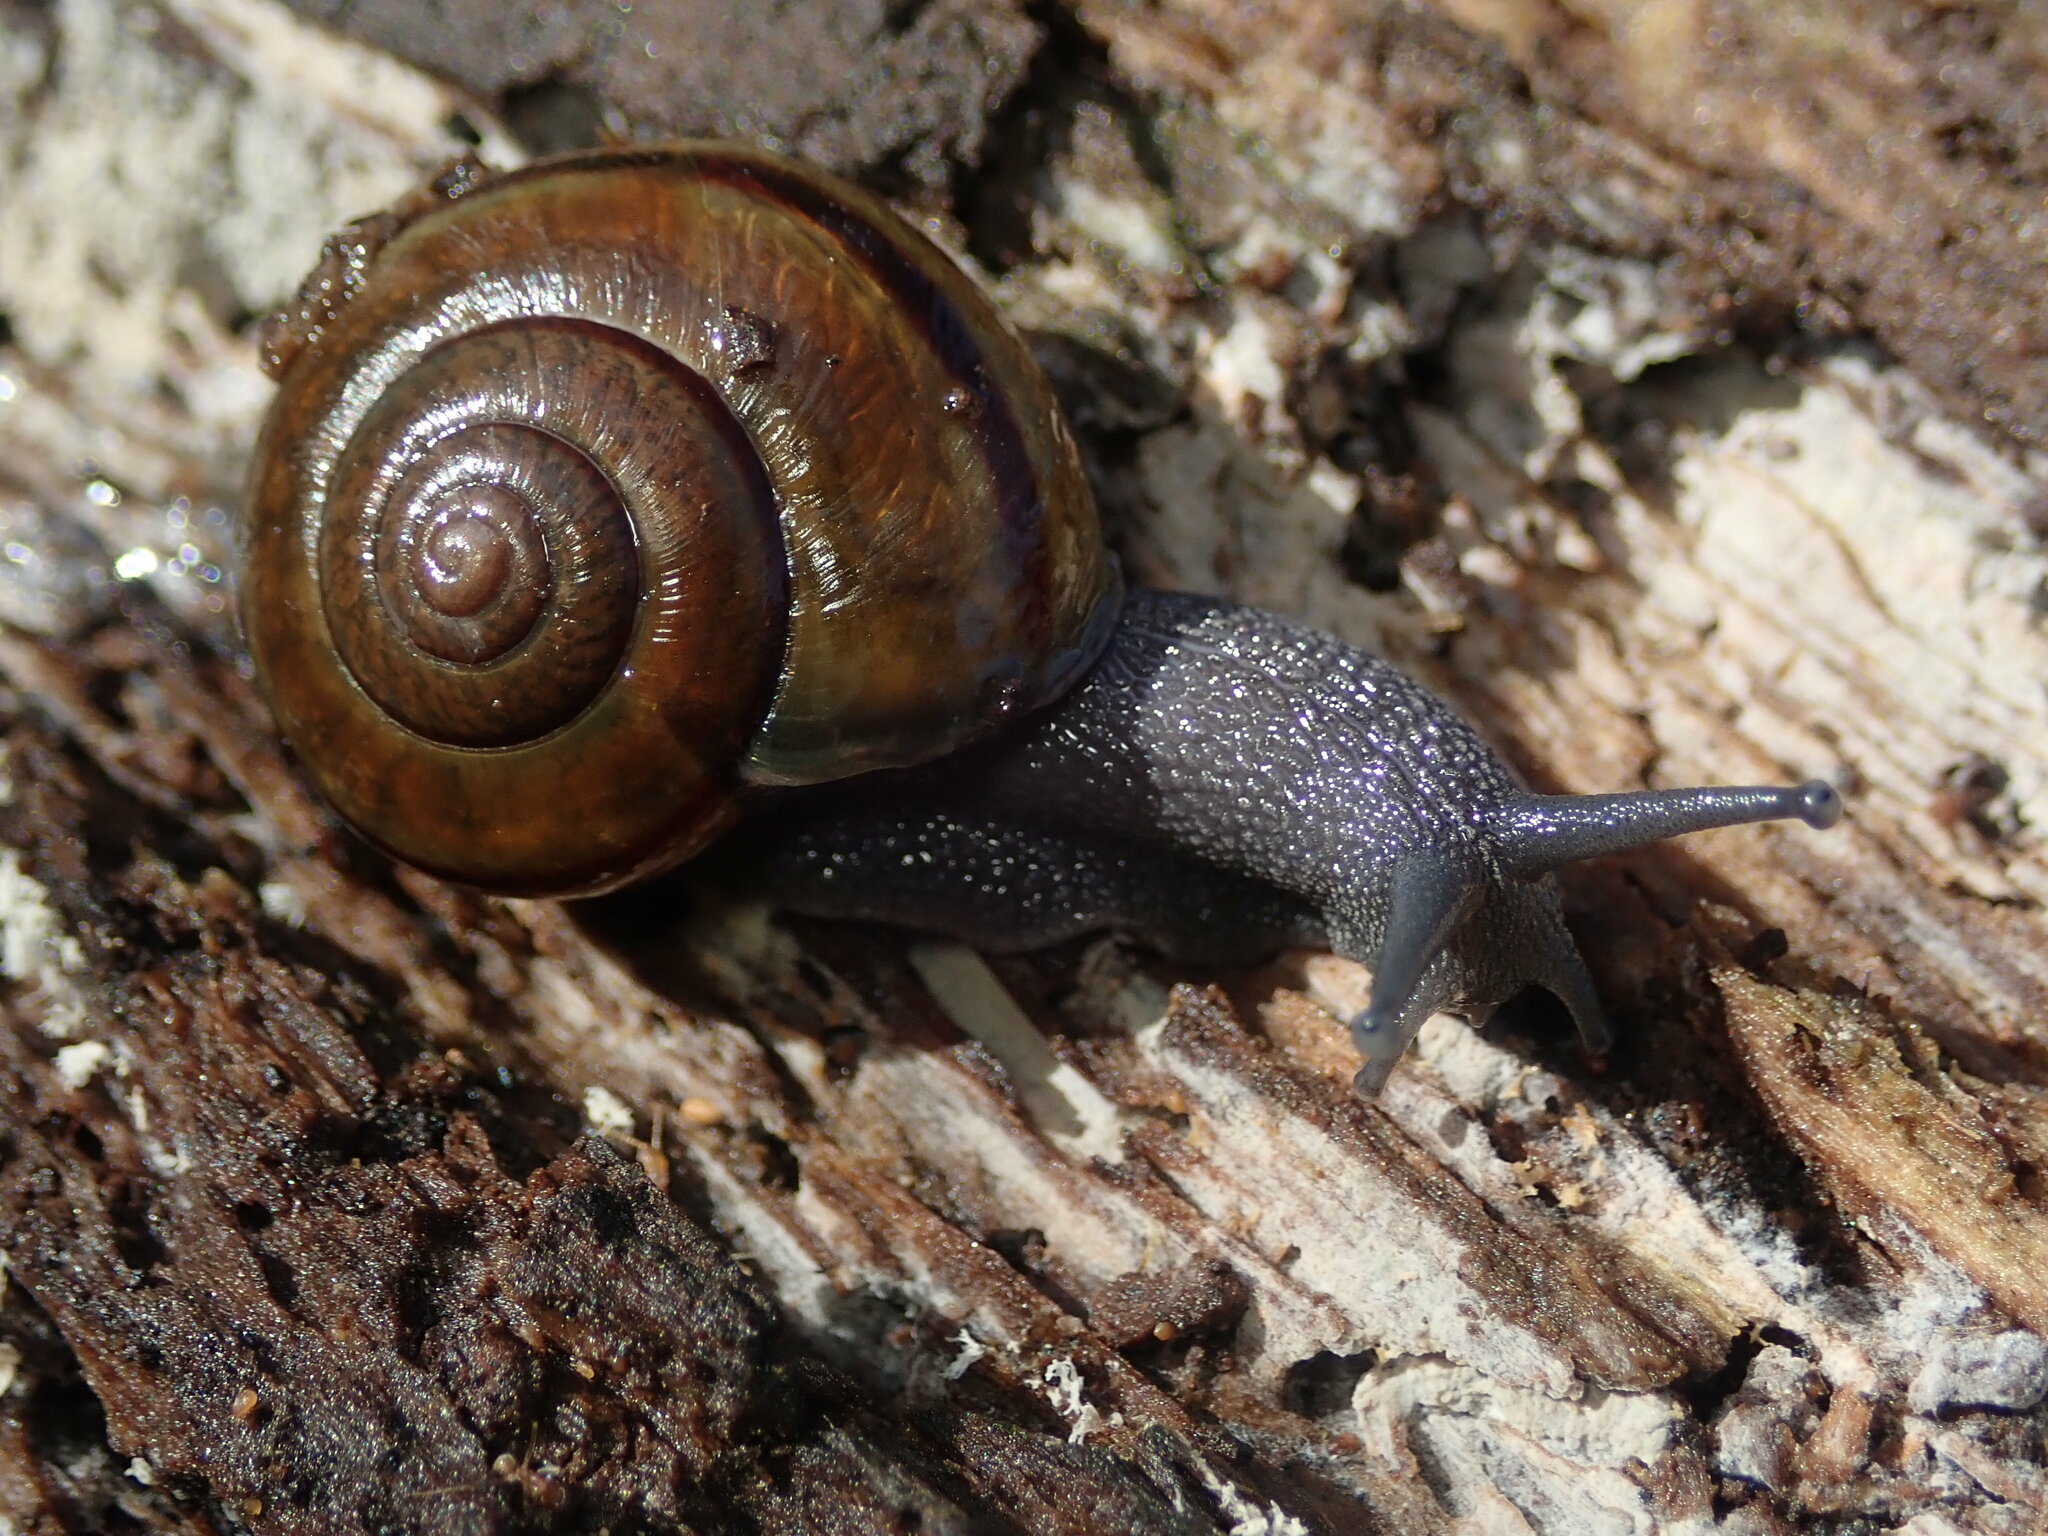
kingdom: Animalia
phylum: Mollusca
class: Gastropoda
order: Stylommatophora
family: Xanthonychidae
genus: Helminthoglypta
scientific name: Helminthoglypta tudiculata
